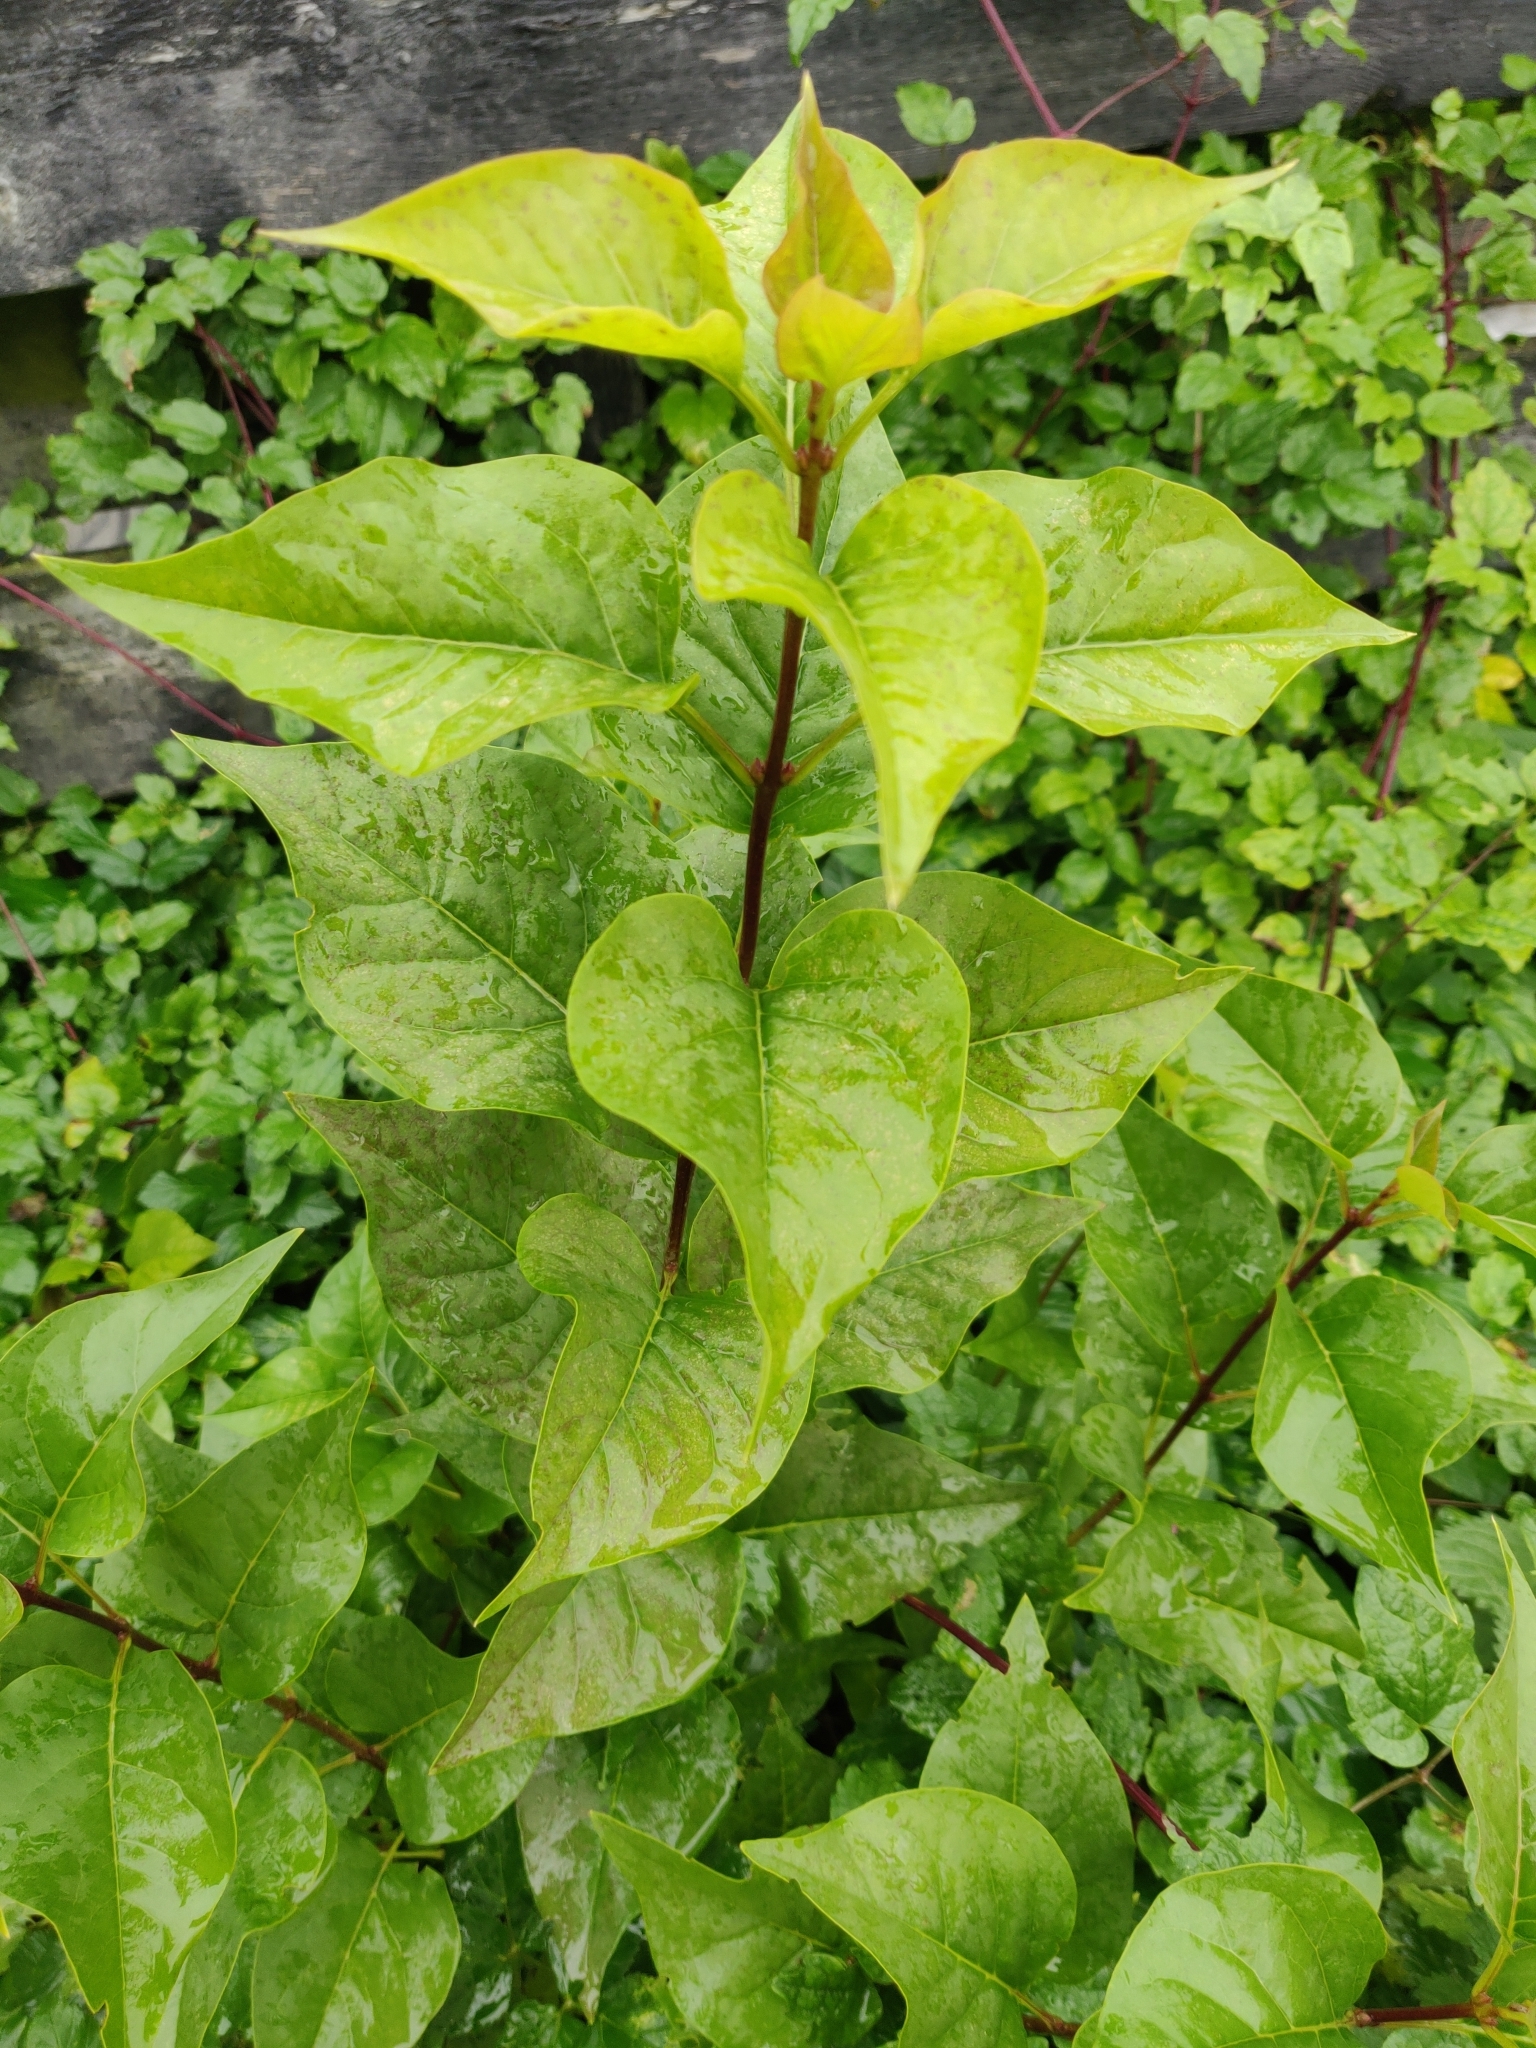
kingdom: Plantae
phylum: Tracheophyta
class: Magnoliopsida
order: Lamiales
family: Oleaceae
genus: Syringa
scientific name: Syringa vulgaris
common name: Common lilac
